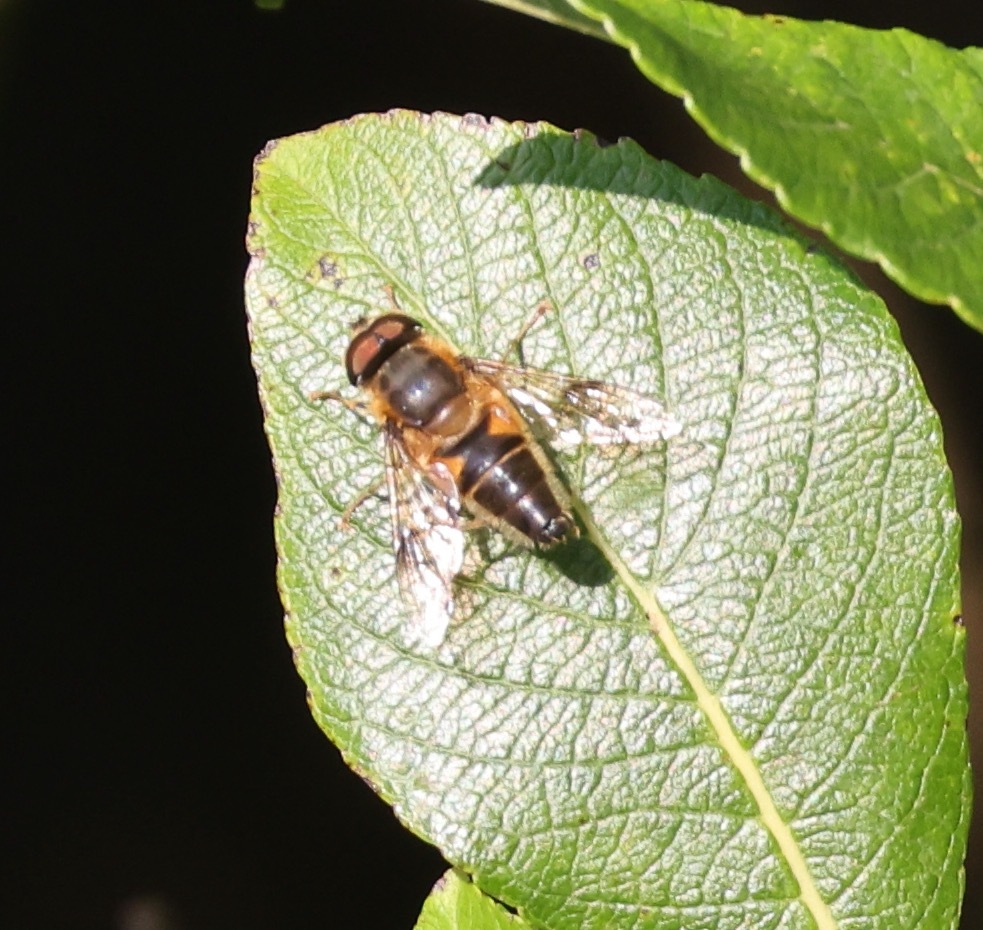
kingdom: Animalia
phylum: Arthropoda
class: Insecta
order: Diptera
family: Syrphidae
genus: Eristalis
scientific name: Eristalis pertinax
